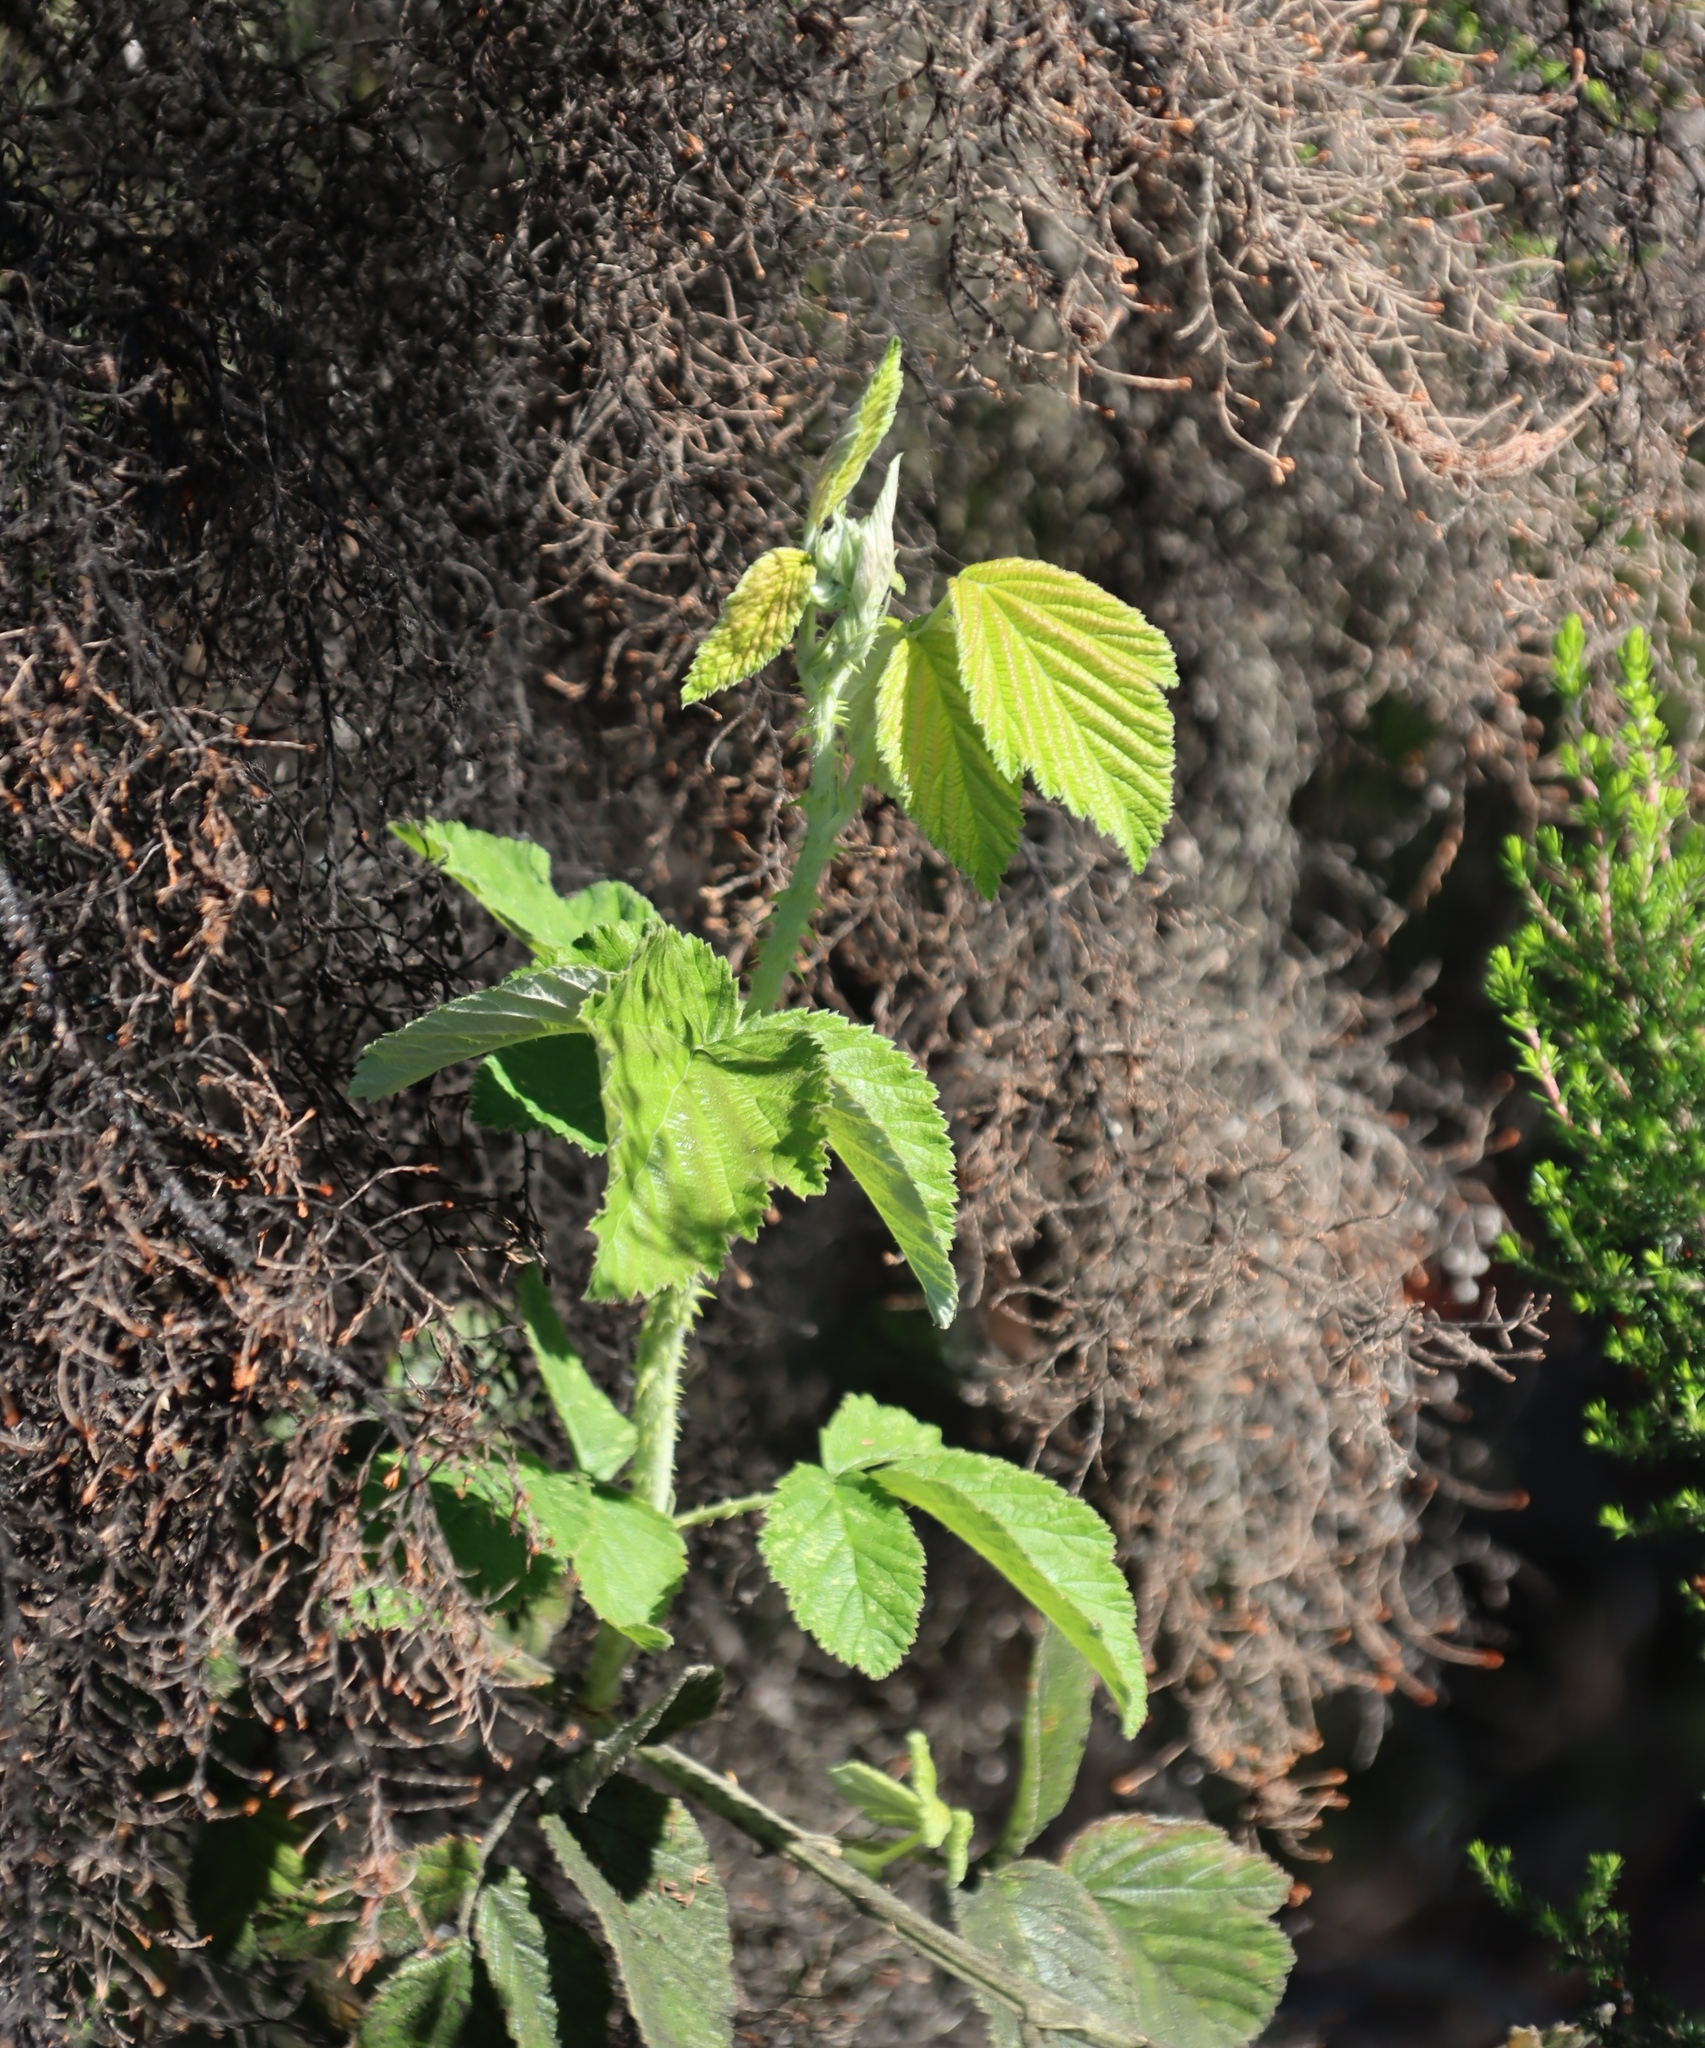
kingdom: Plantae
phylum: Tracheophyta
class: Magnoliopsida
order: Rosales
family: Rosaceae
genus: Rubus
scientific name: Rubus rigidus
